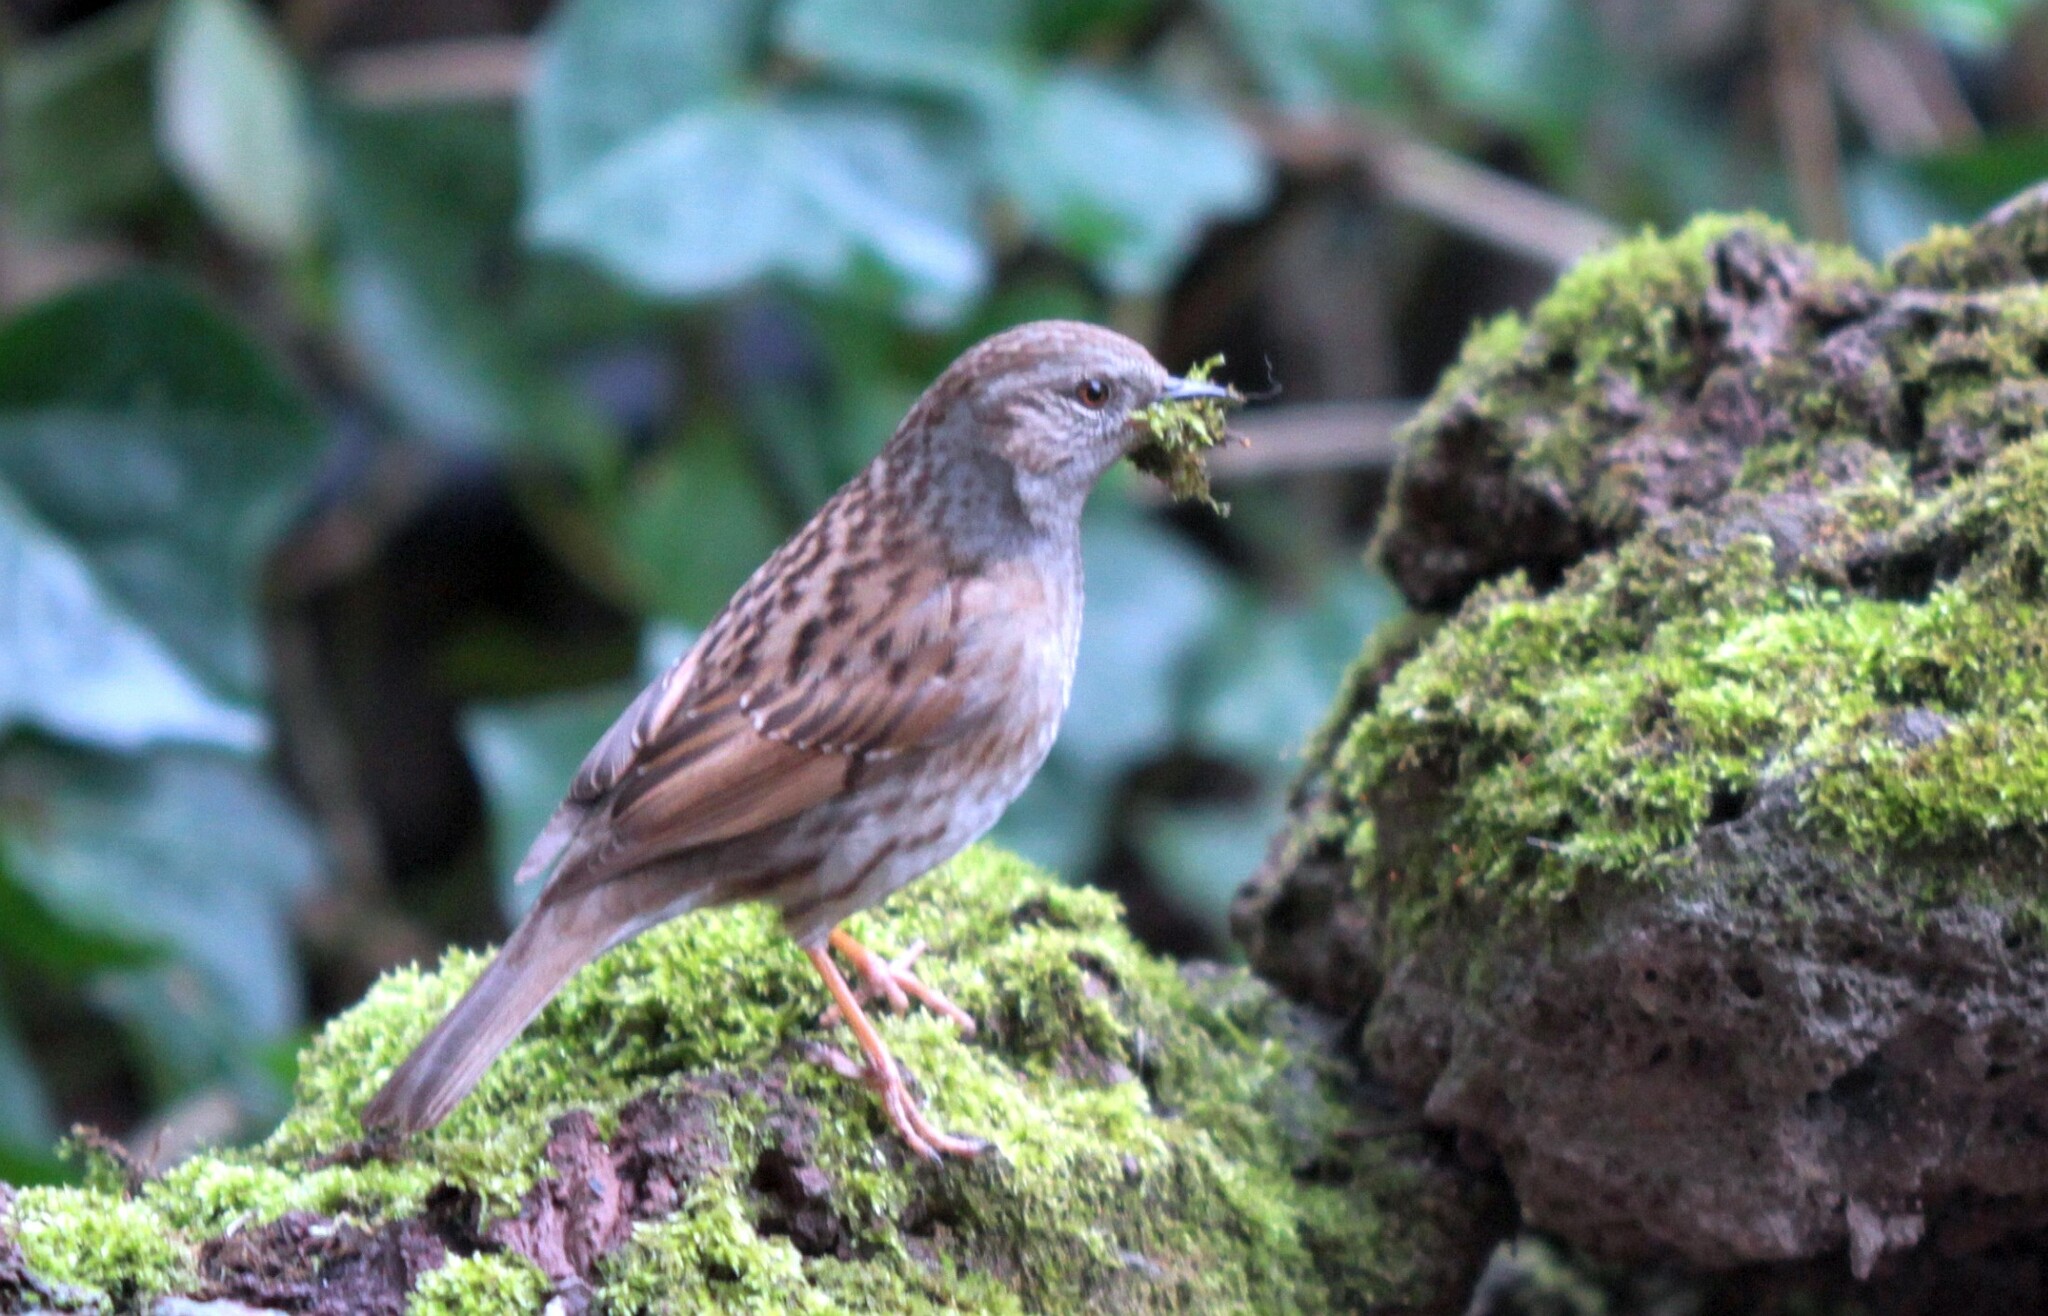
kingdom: Animalia
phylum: Chordata
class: Aves
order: Passeriformes
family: Prunellidae
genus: Prunella
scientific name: Prunella modularis
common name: Dunnock
